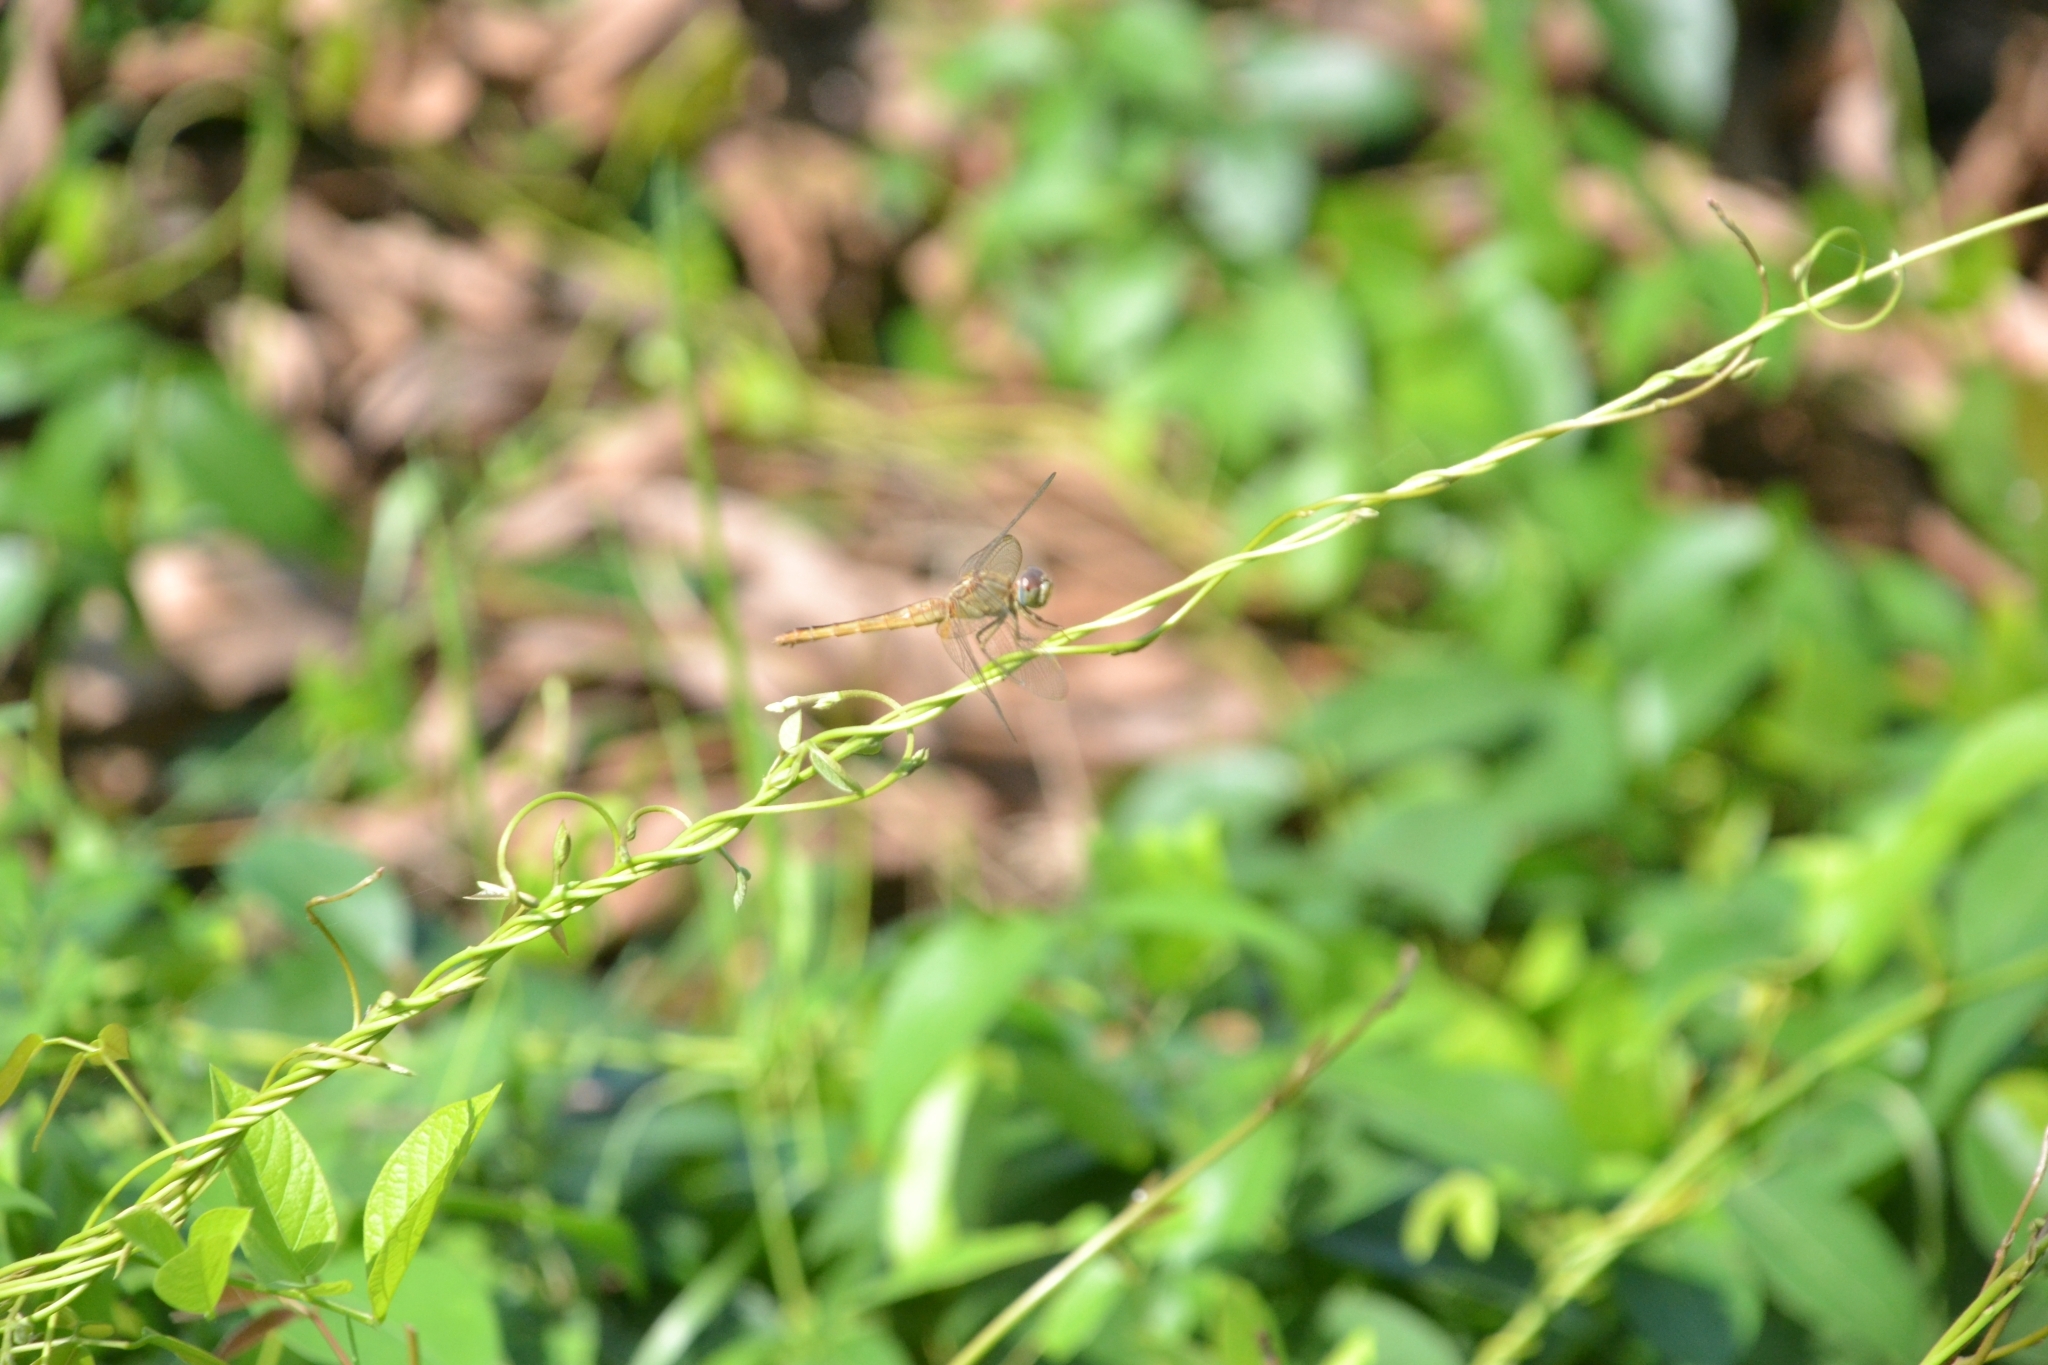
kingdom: Animalia
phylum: Arthropoda
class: Insecta
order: Odonata
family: Libellulidae
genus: Crocothemis
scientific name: Crocothemis servilia
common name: Scarlet skimmer
